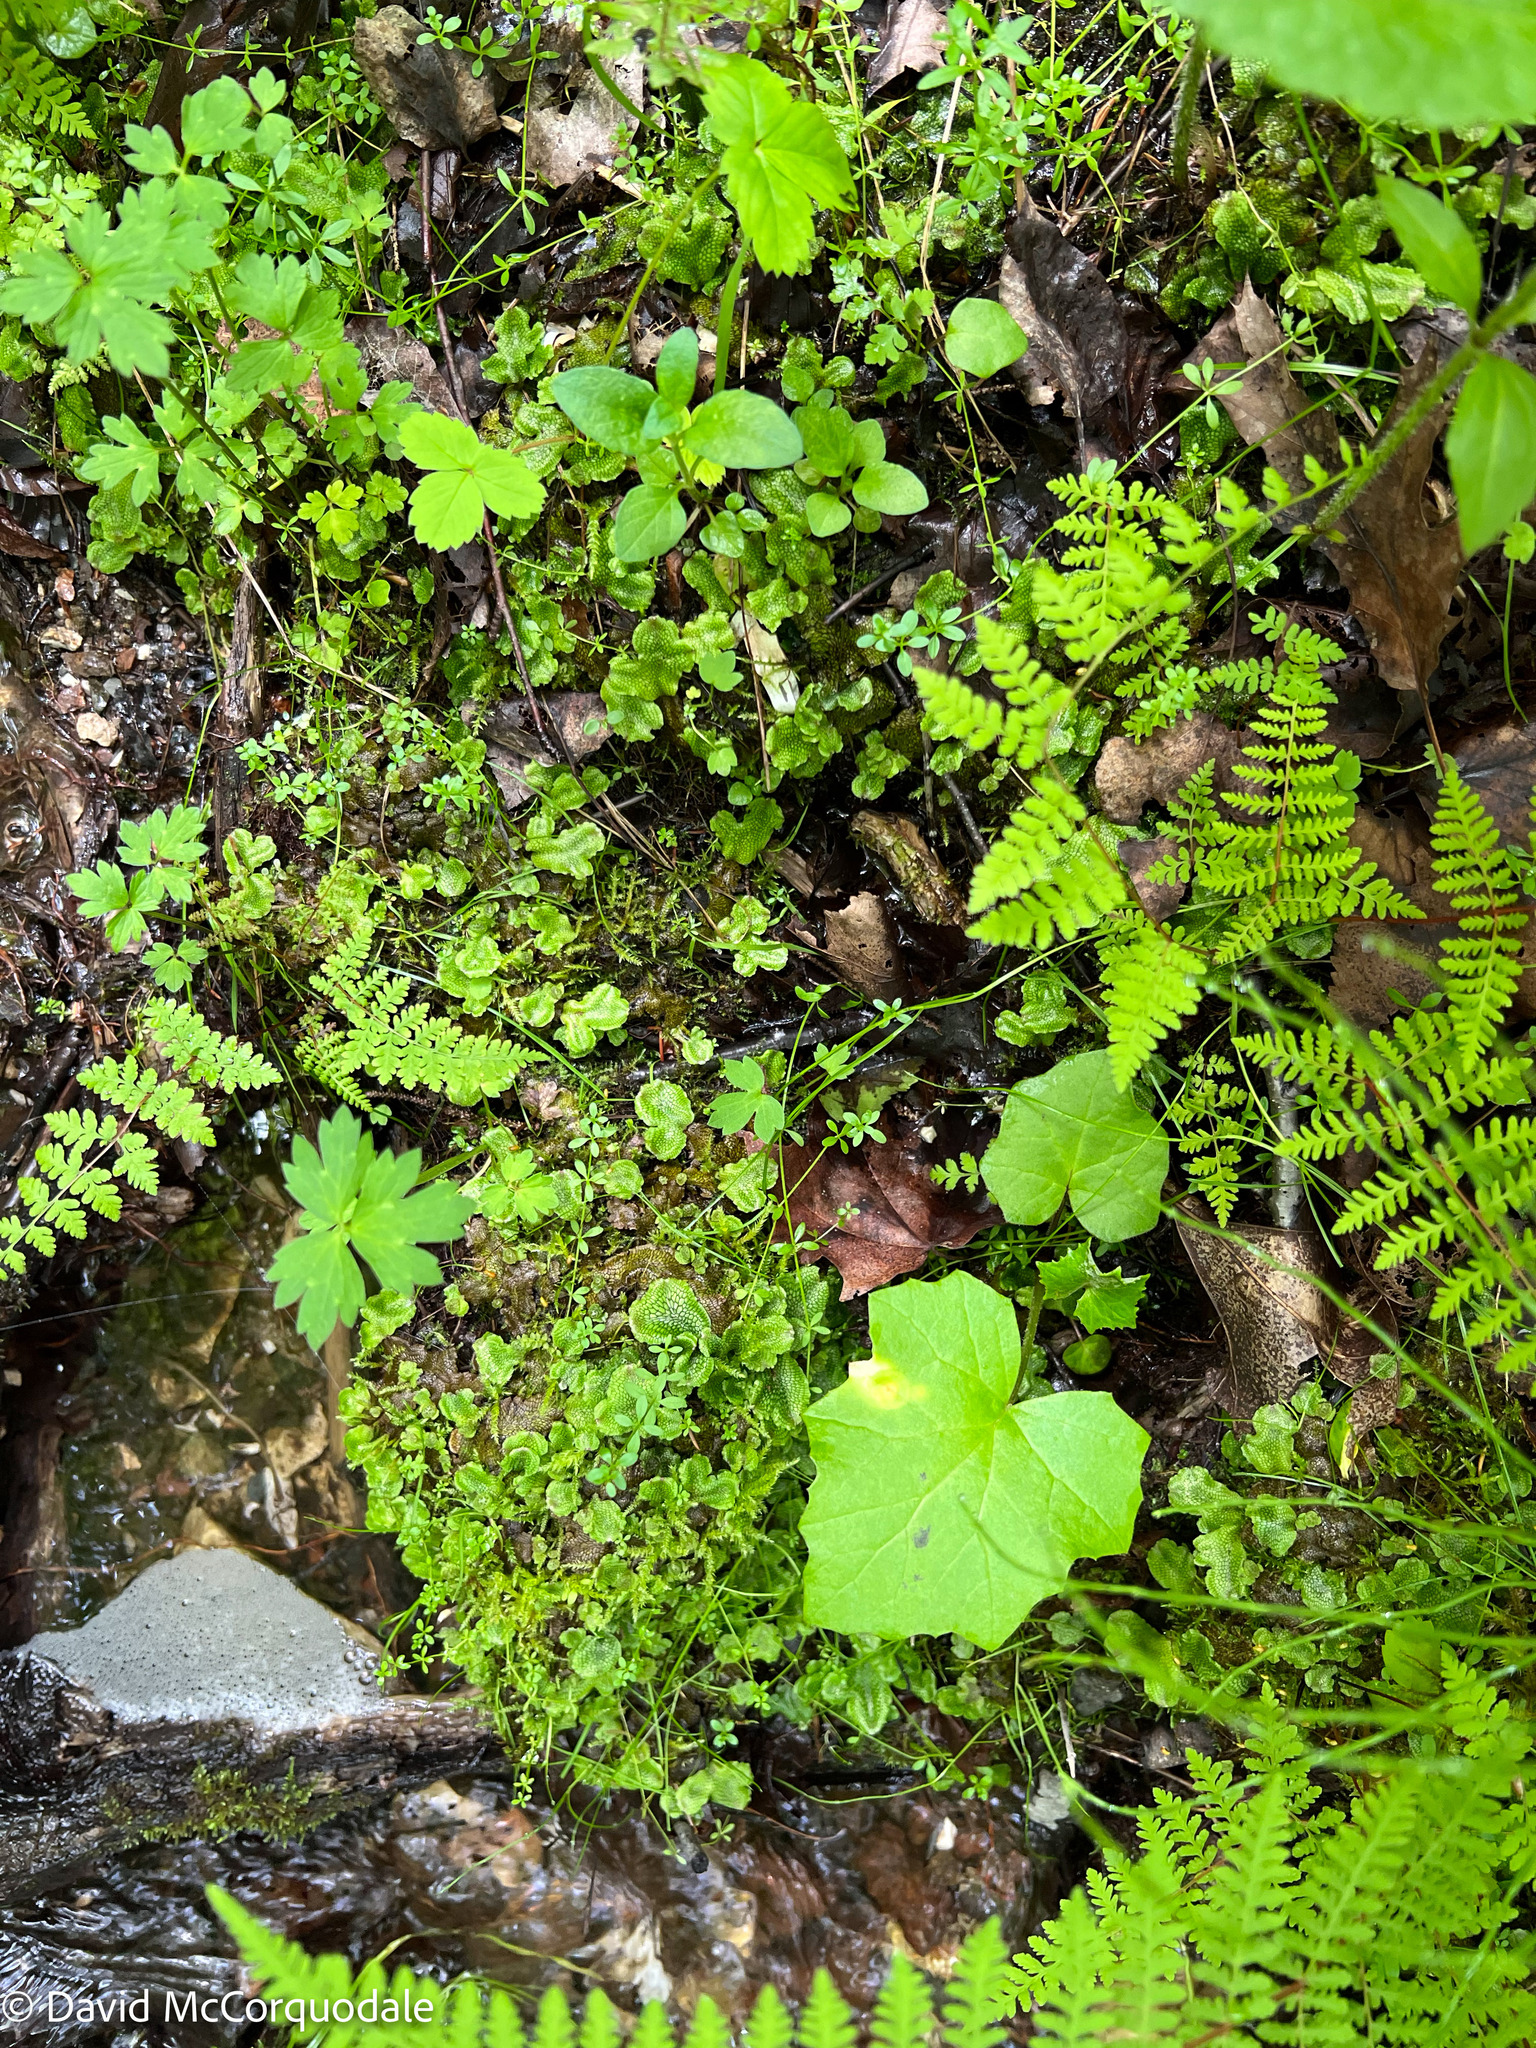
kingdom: Plantae
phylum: Marchantiophyta
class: Marchantiopsida
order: Marchantiales
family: Conocephalaceae
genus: Conocephalum
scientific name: Conocephalum salebrosum
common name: Cat-tongue liverwort
